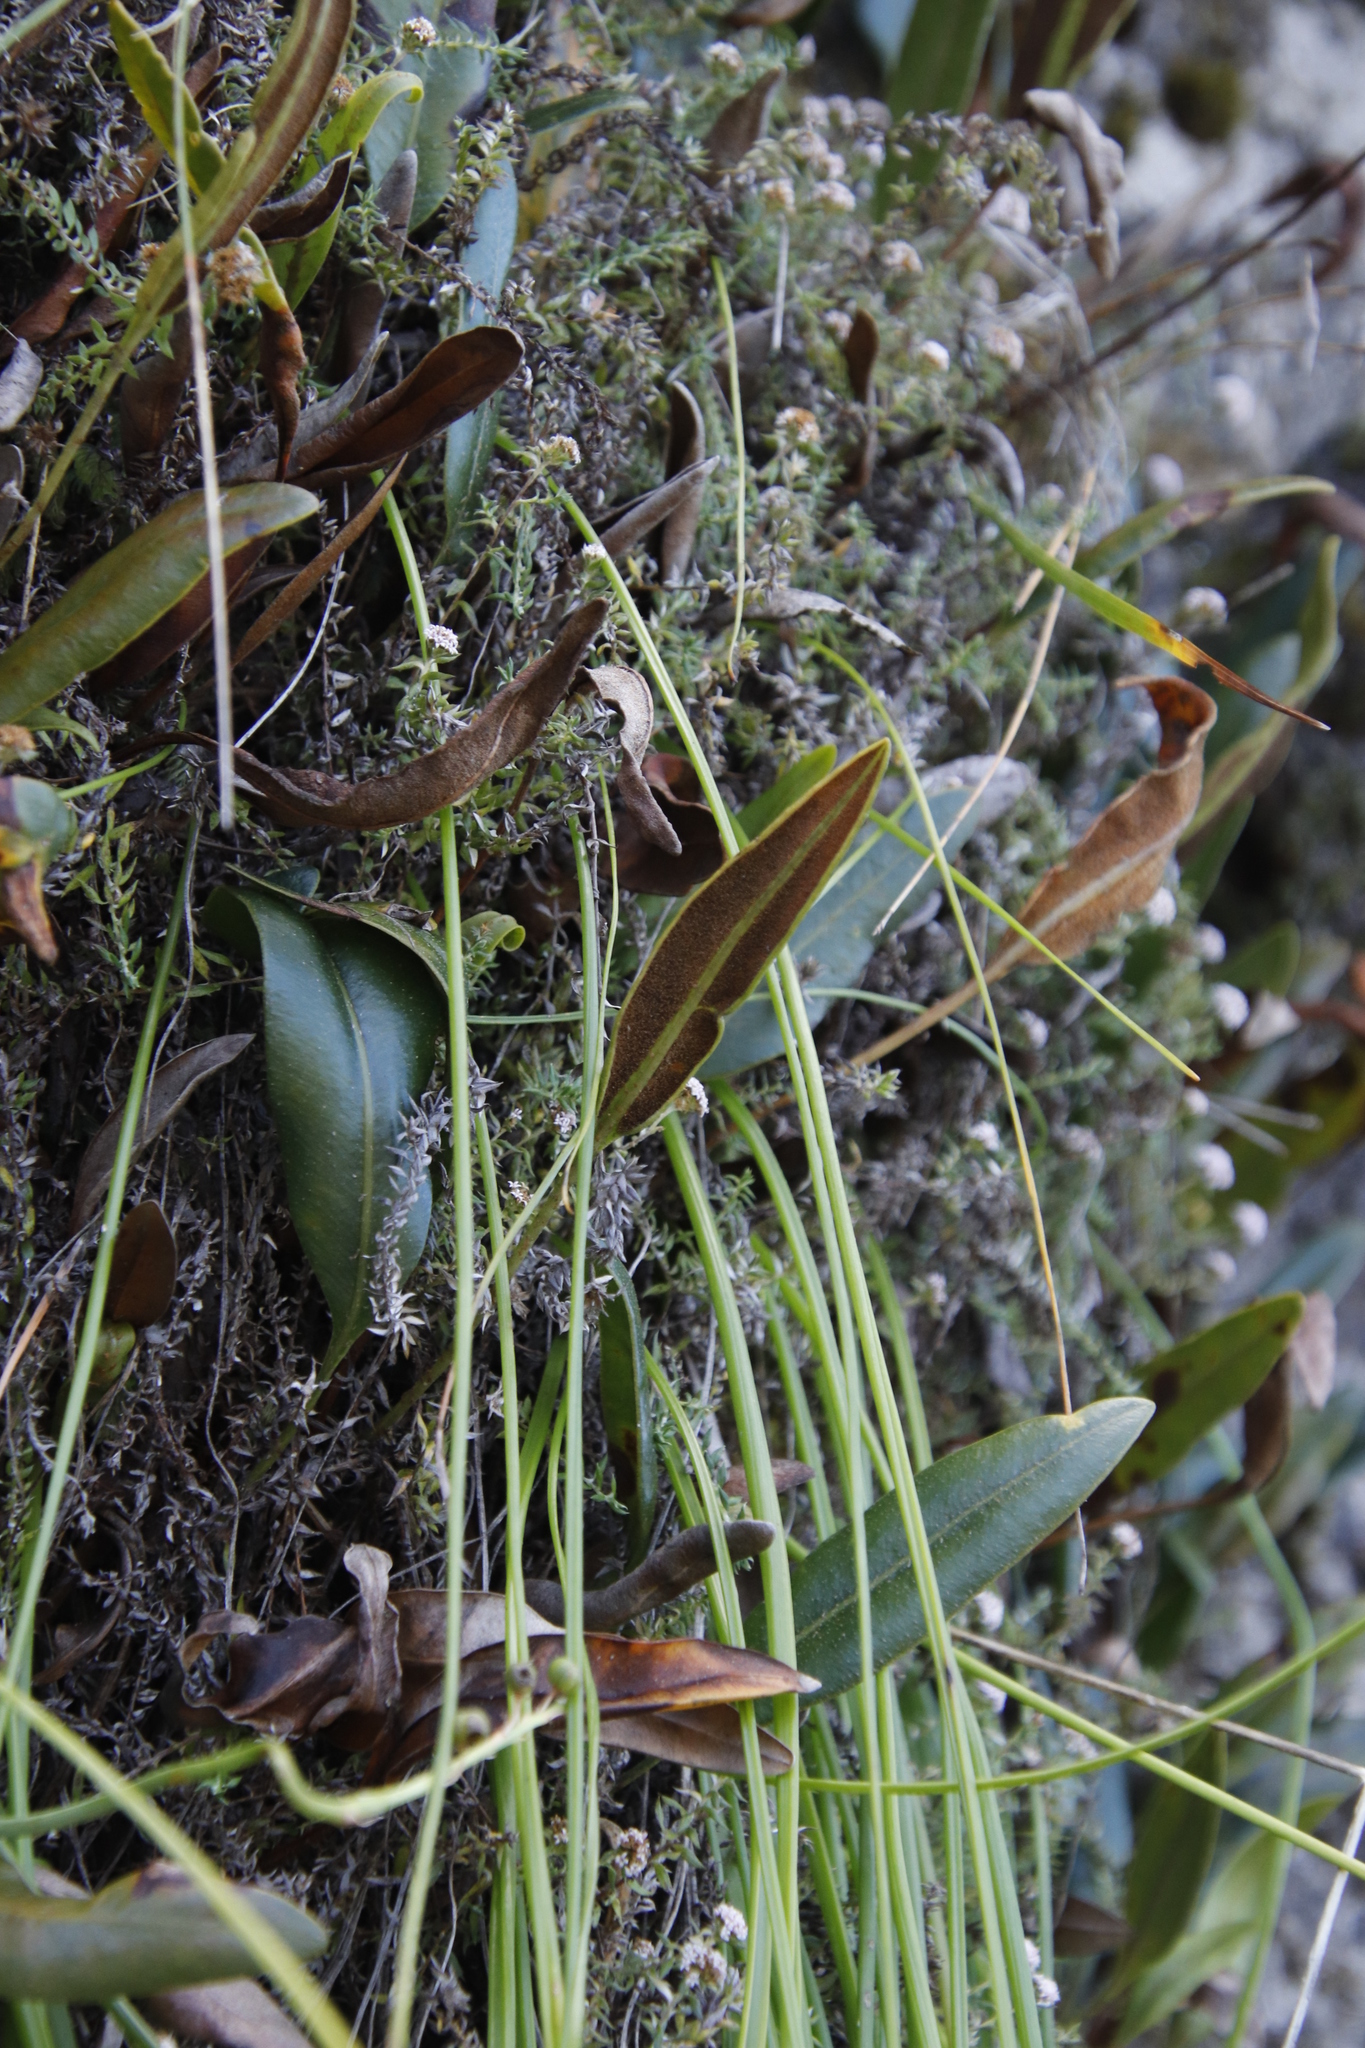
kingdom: Plantae
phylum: Tracheophyta
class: Polypodiopsida
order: Polypodiales
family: Dryopteridaceae
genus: Elaphoglossum
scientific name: Elaphoglossum conforme
